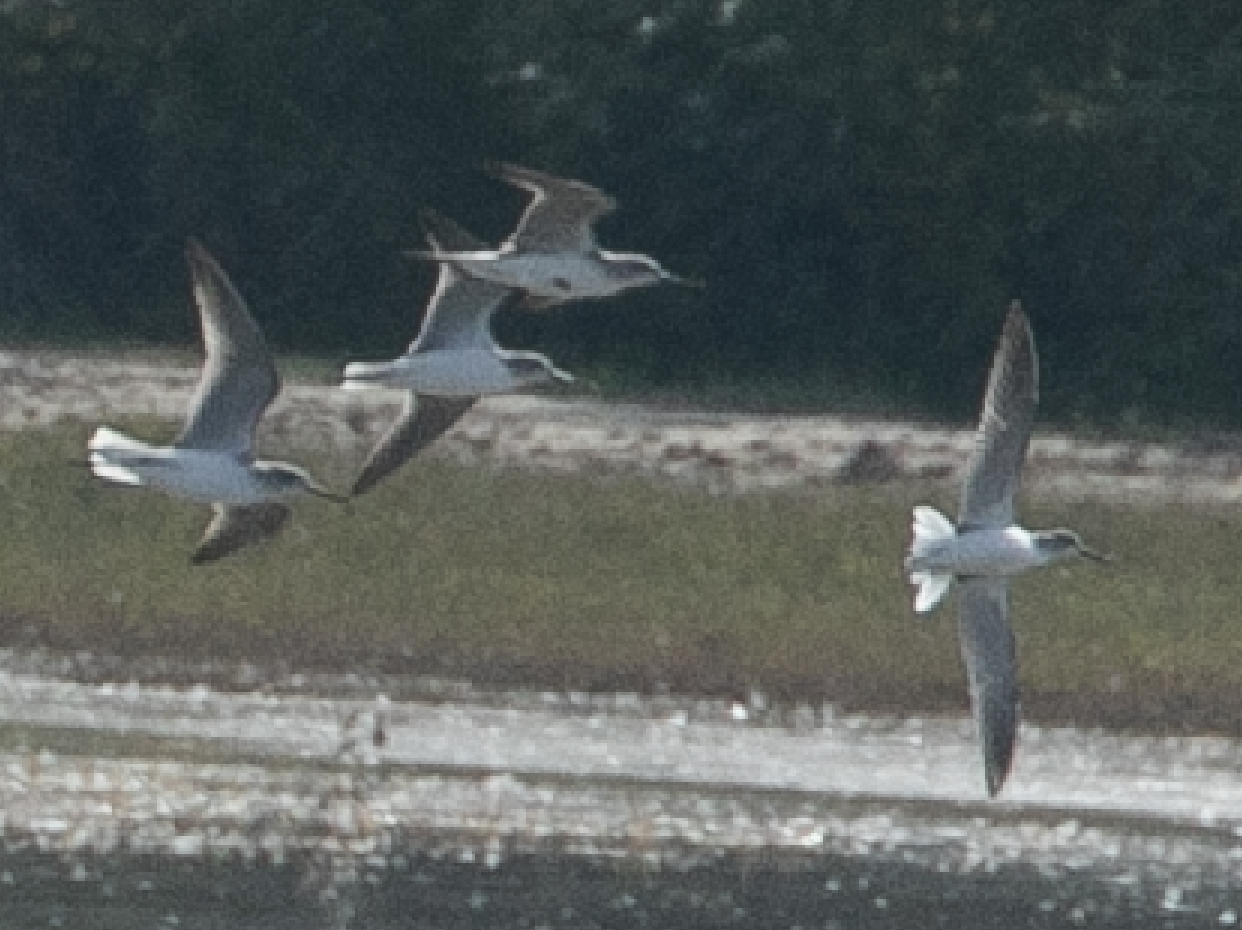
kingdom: Animalia
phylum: Chordata
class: Aves
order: Charadriiformes
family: Scolopacidae
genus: Tringa
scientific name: Tringa nebularia
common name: Common greenshank
